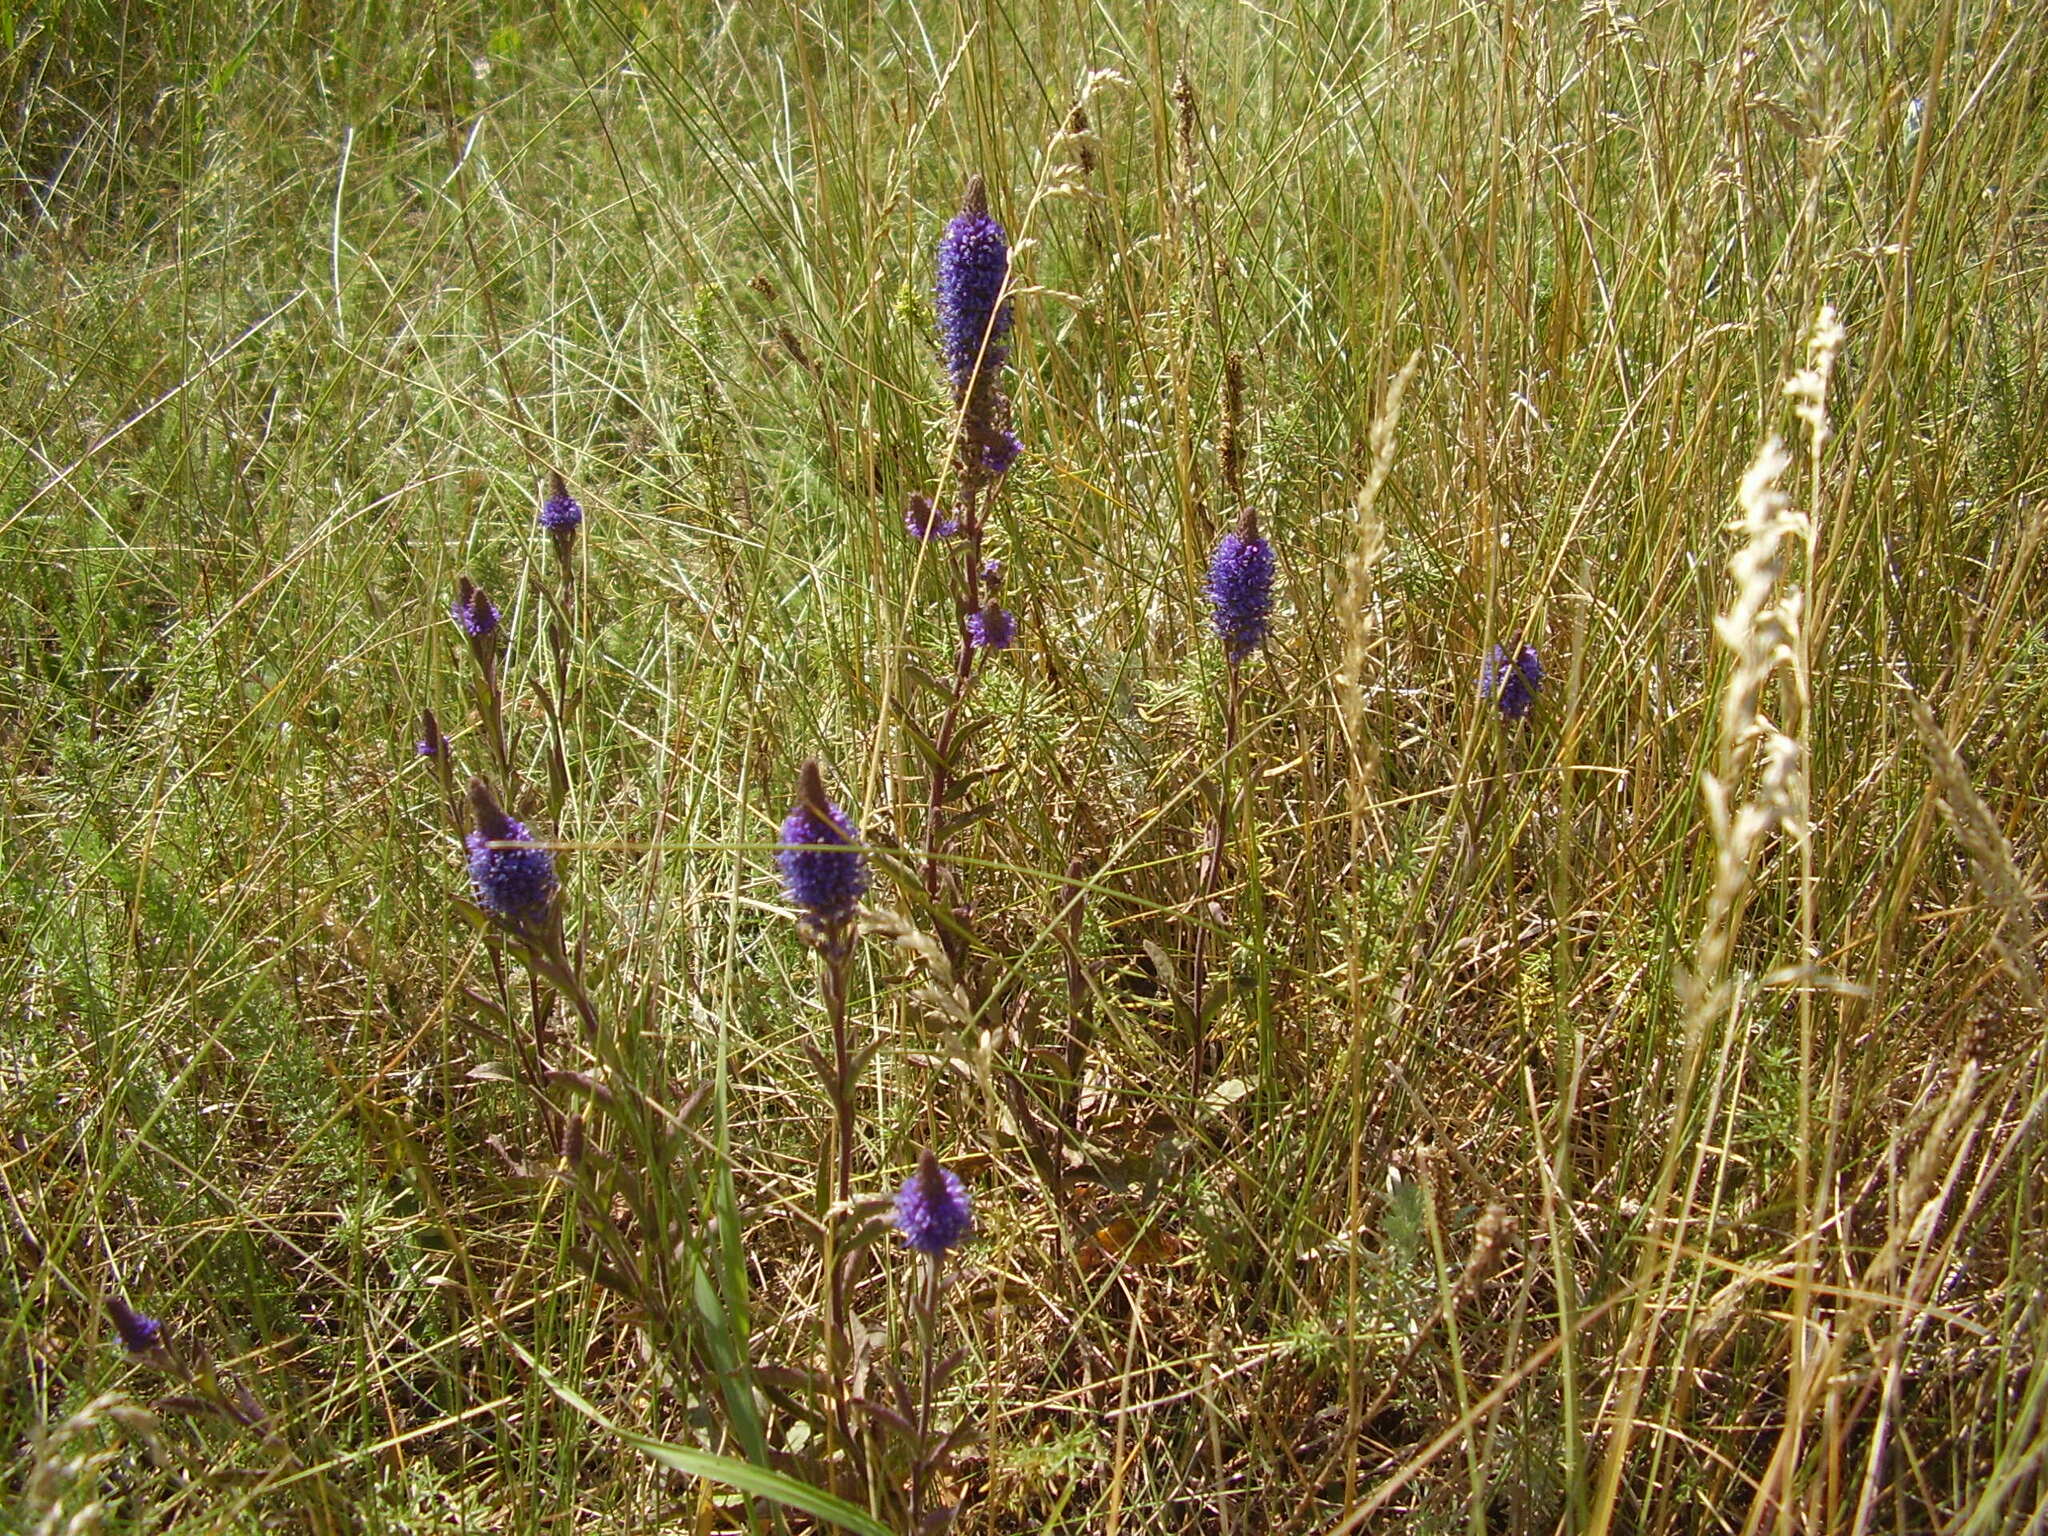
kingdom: Plantae
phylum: Tracheophyta
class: Magnoliopsida
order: Lamiales
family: Plantaginaceae
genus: Veronica
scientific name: Veronica spicata
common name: Spiked speedwell
